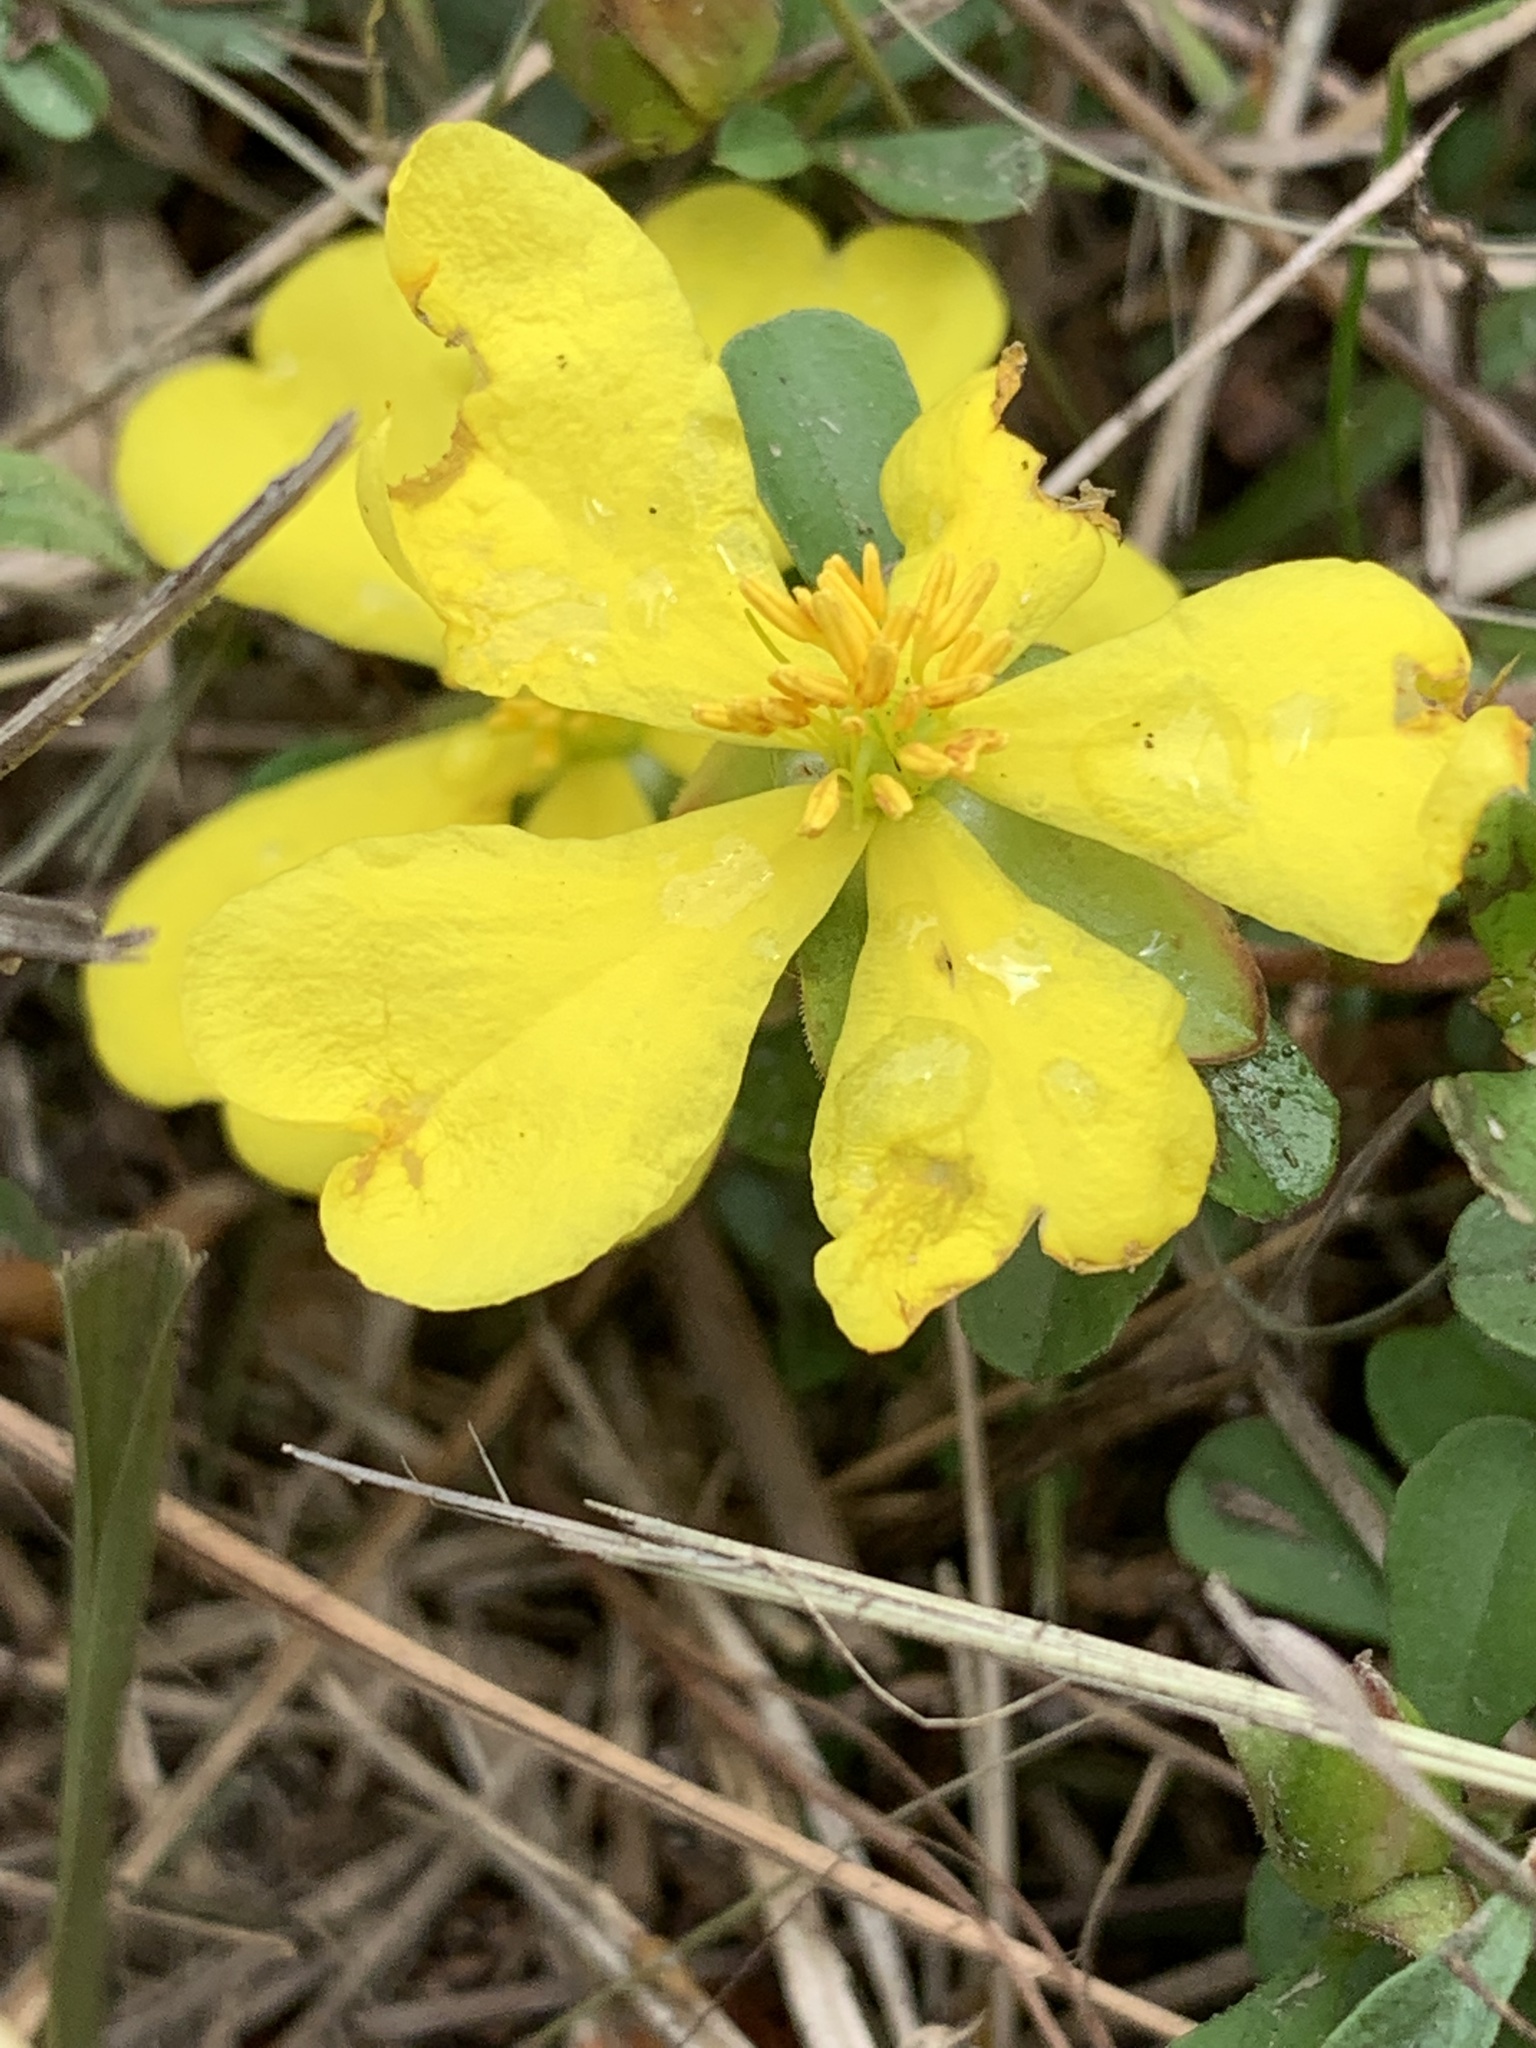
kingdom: Plantae
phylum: Tracheophyta
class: Magnoliopsida
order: Dilleniales
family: Dilleniaceae
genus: Hibbertia
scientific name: Hibbertia diffusa
